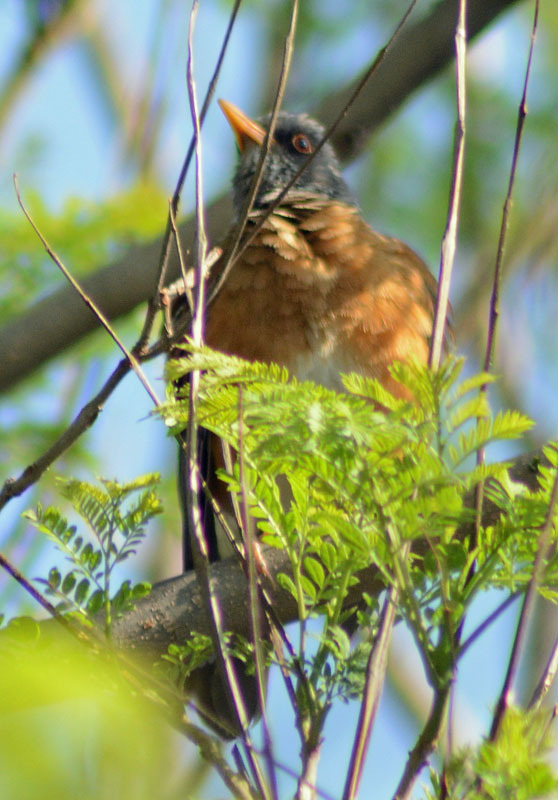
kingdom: Animalia
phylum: Chordata
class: Aves
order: Passeriformes
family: Turdidae
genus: Turdus
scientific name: Turdus rufopalliatus
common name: Rufous-backed robin
